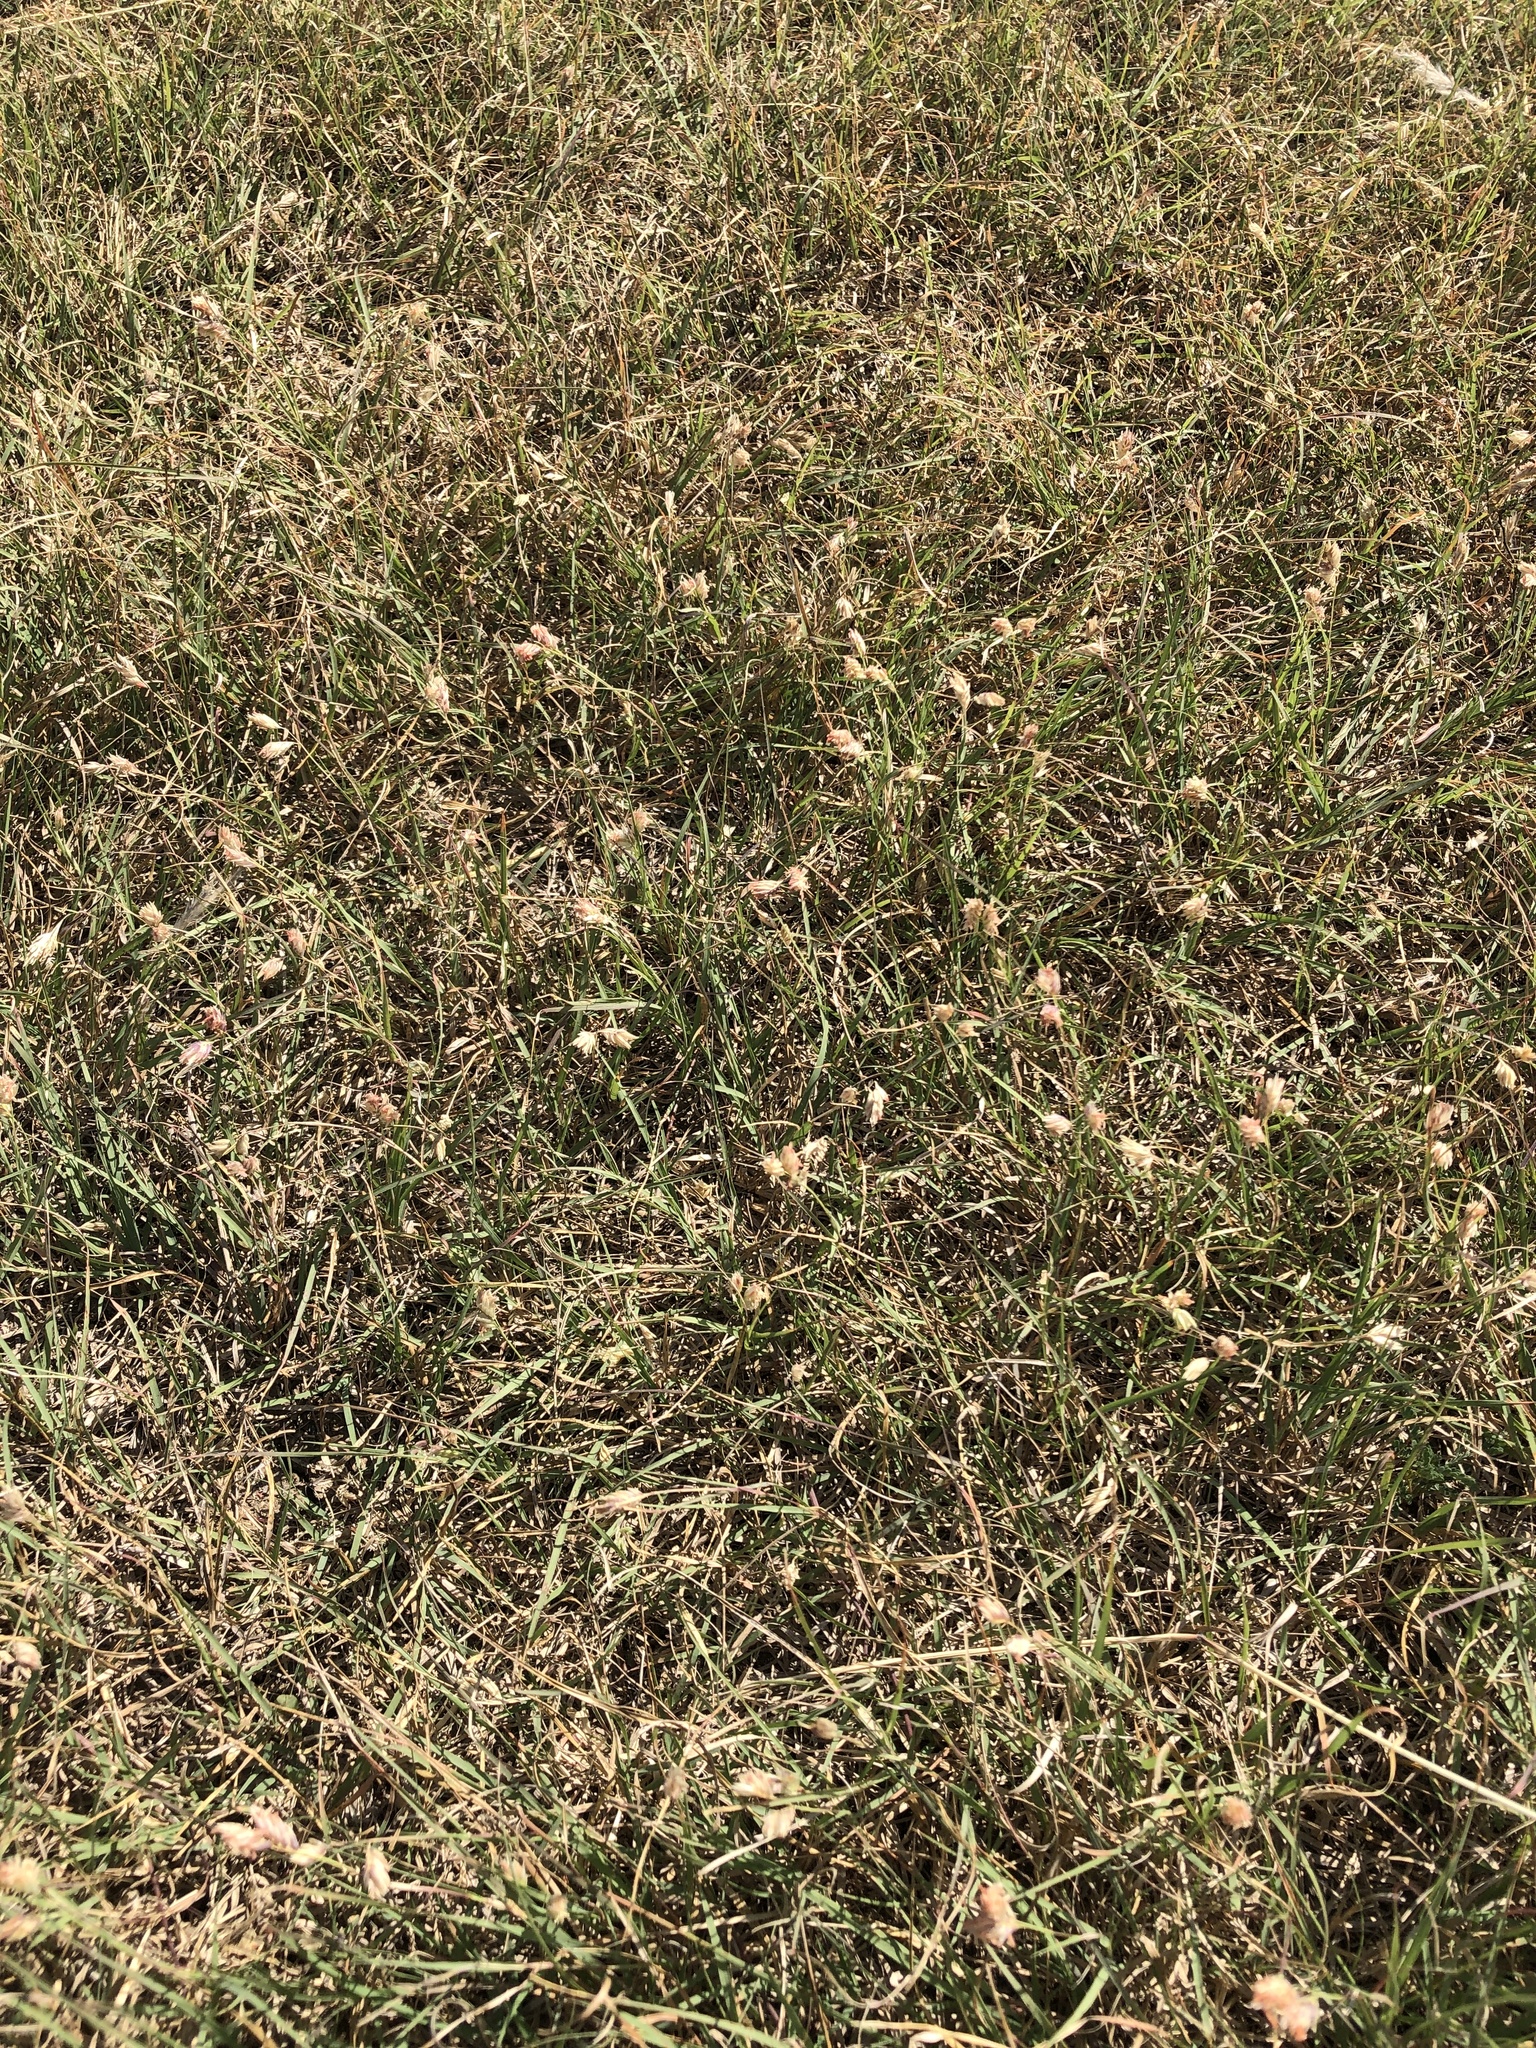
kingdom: Plantae
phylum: Tracheophyta
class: Liliopsida
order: Poales
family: Poaceae
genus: Bouteloua
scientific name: Bouteloua dactyloides
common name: Buffalo grass
